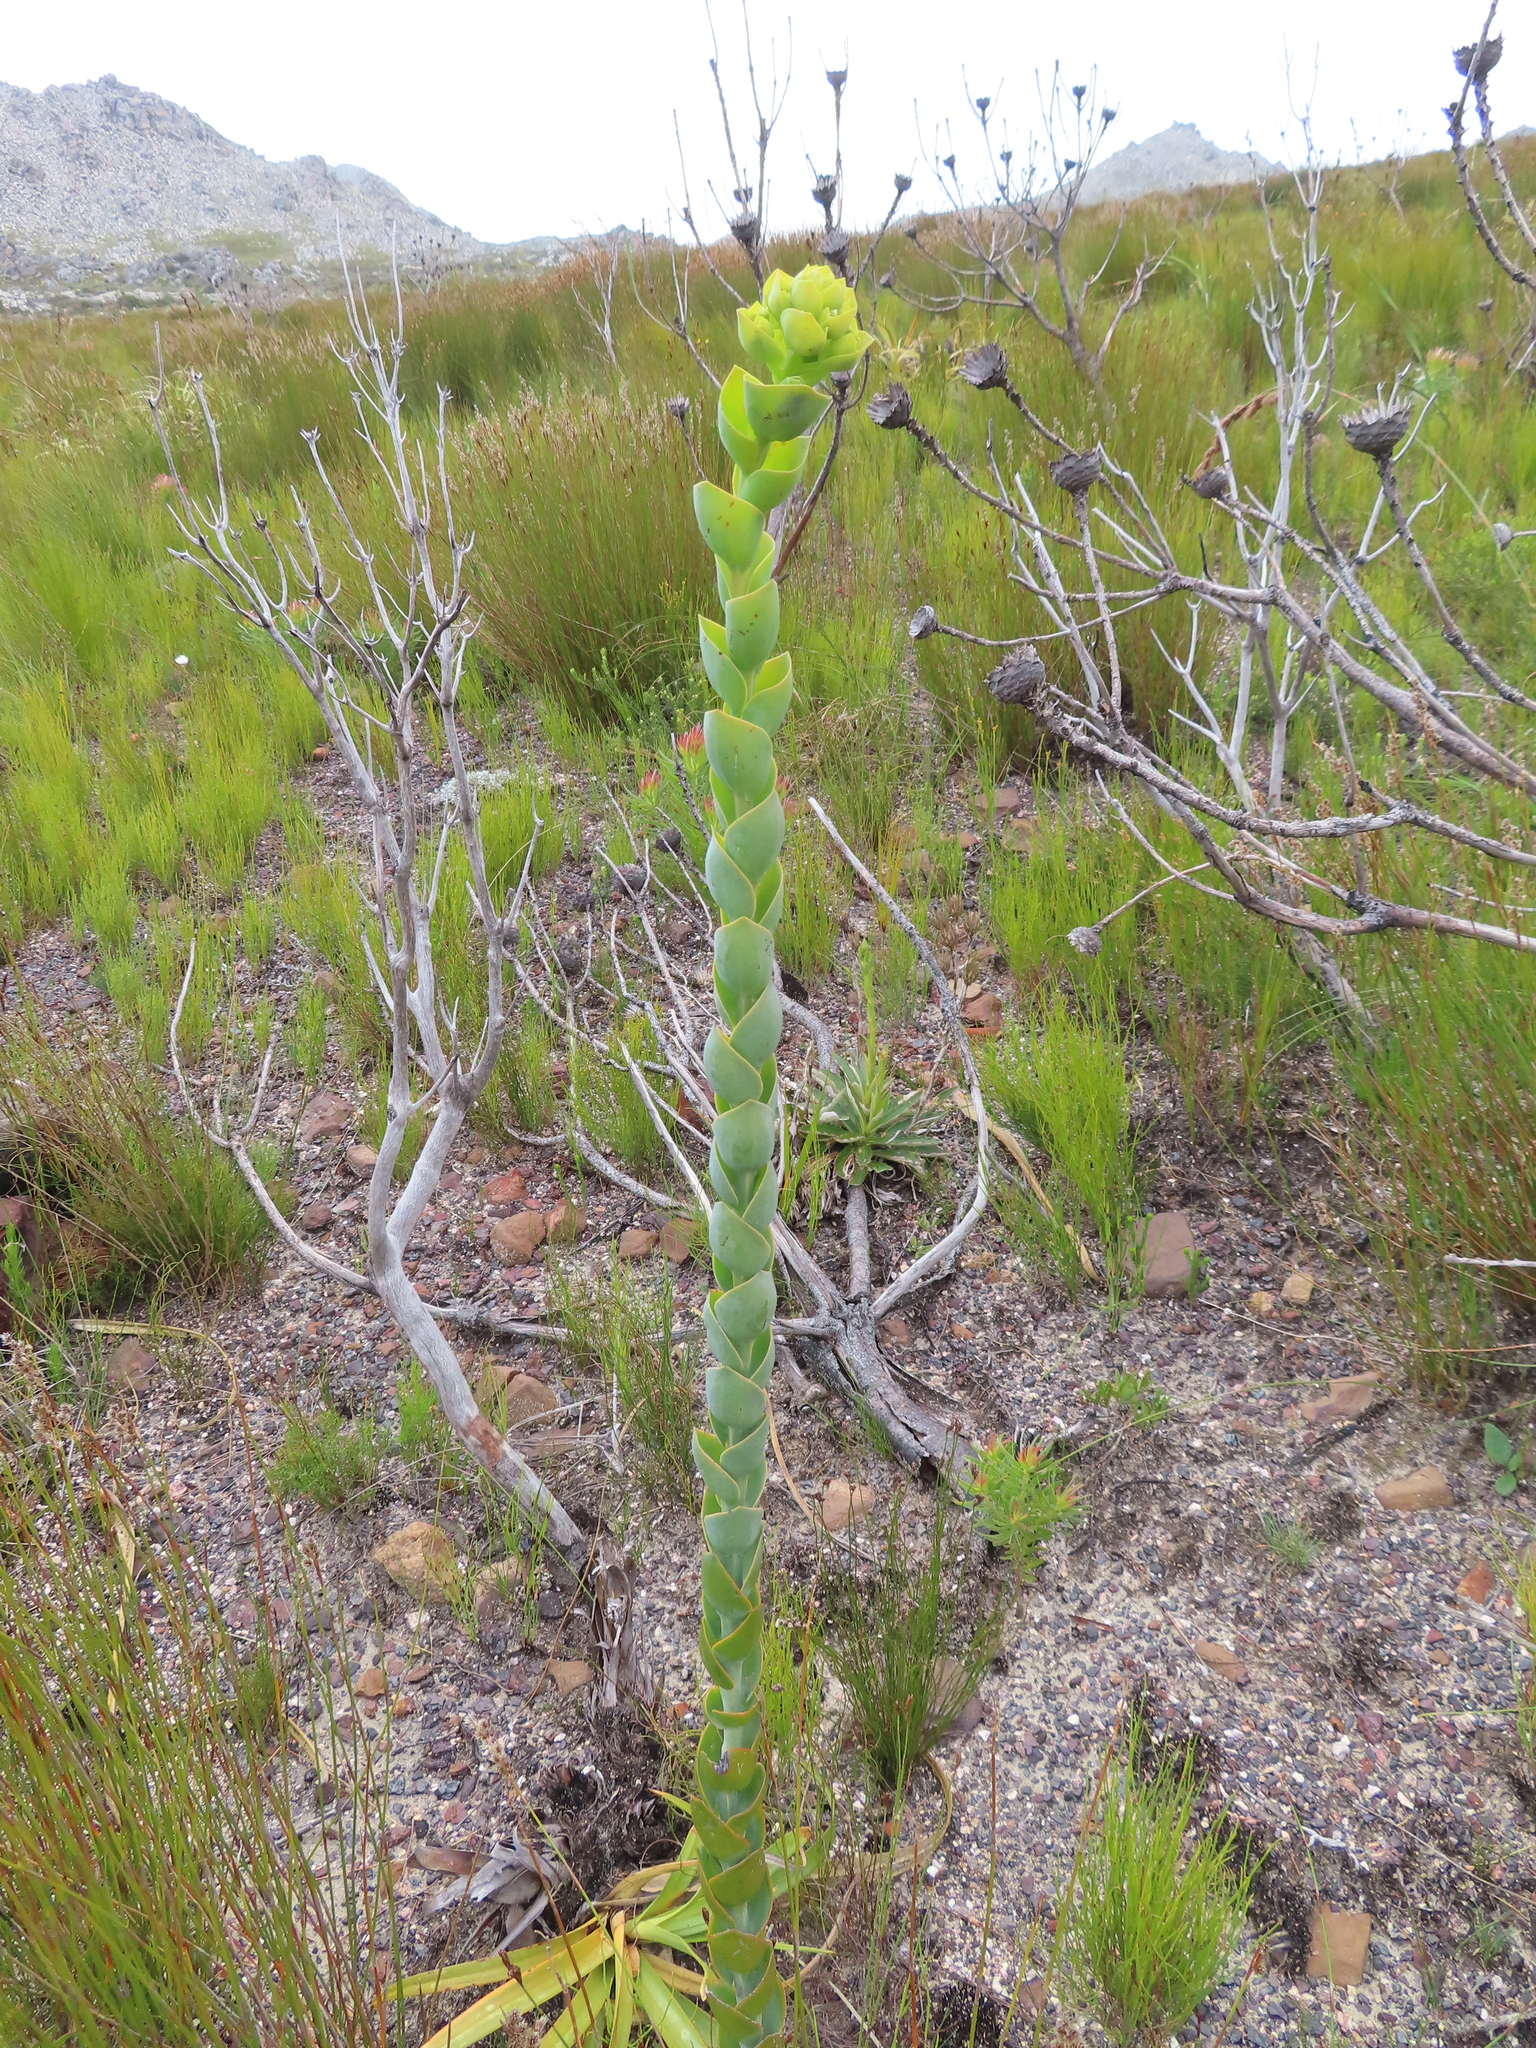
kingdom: Plantae
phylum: Tracheophyta
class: Magnoliopsida
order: Santalales
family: Thesiaceae
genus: Thesium
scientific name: Thesium euphorbioides
